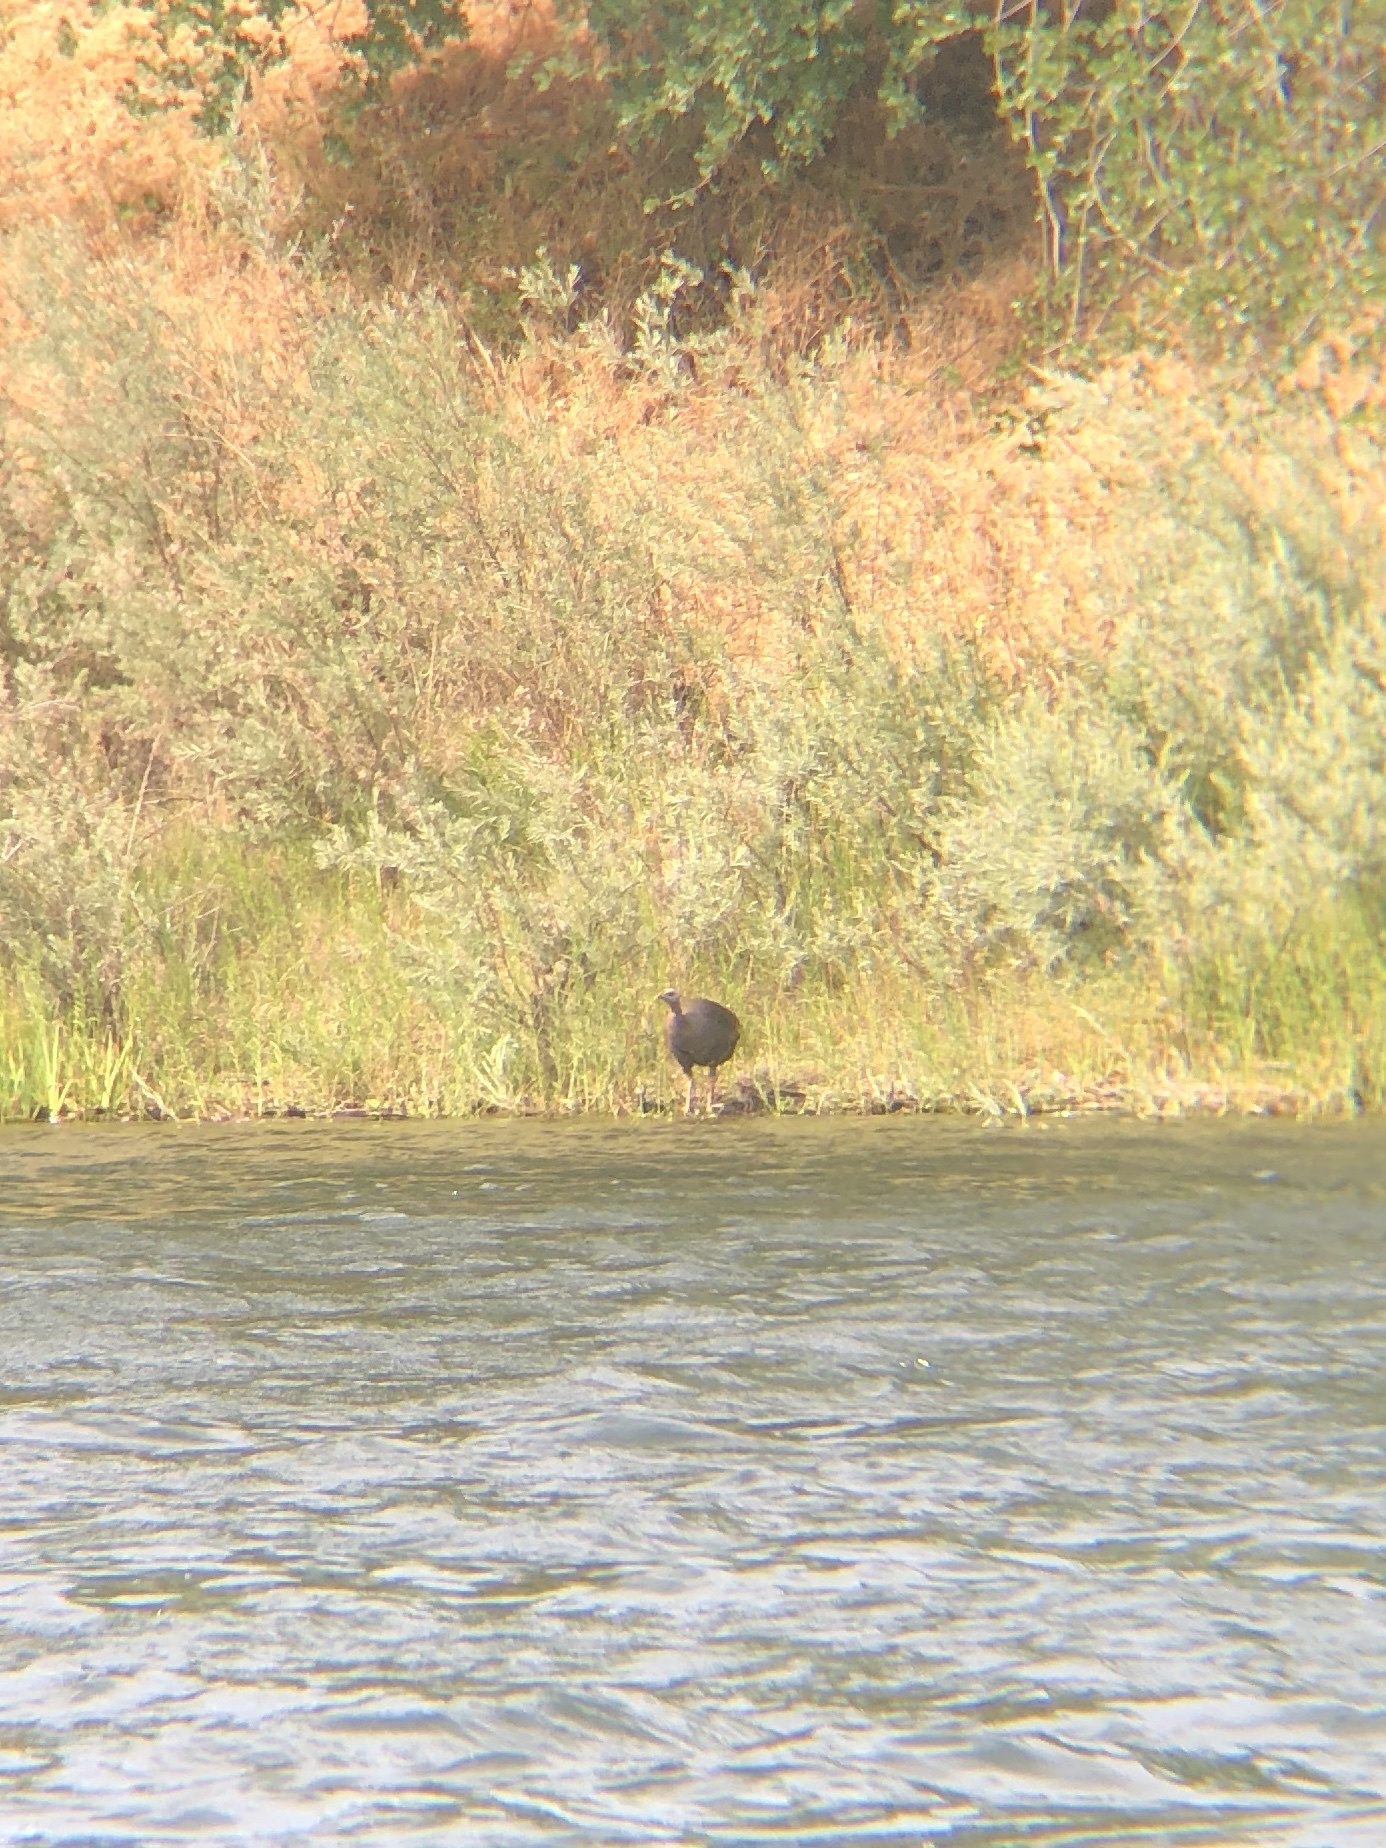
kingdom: Animalia
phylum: Chordata
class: Aves
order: Galliformes
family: Phasianidae
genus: Meleagris
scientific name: Meleagris gallopavo
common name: Wild turkey
